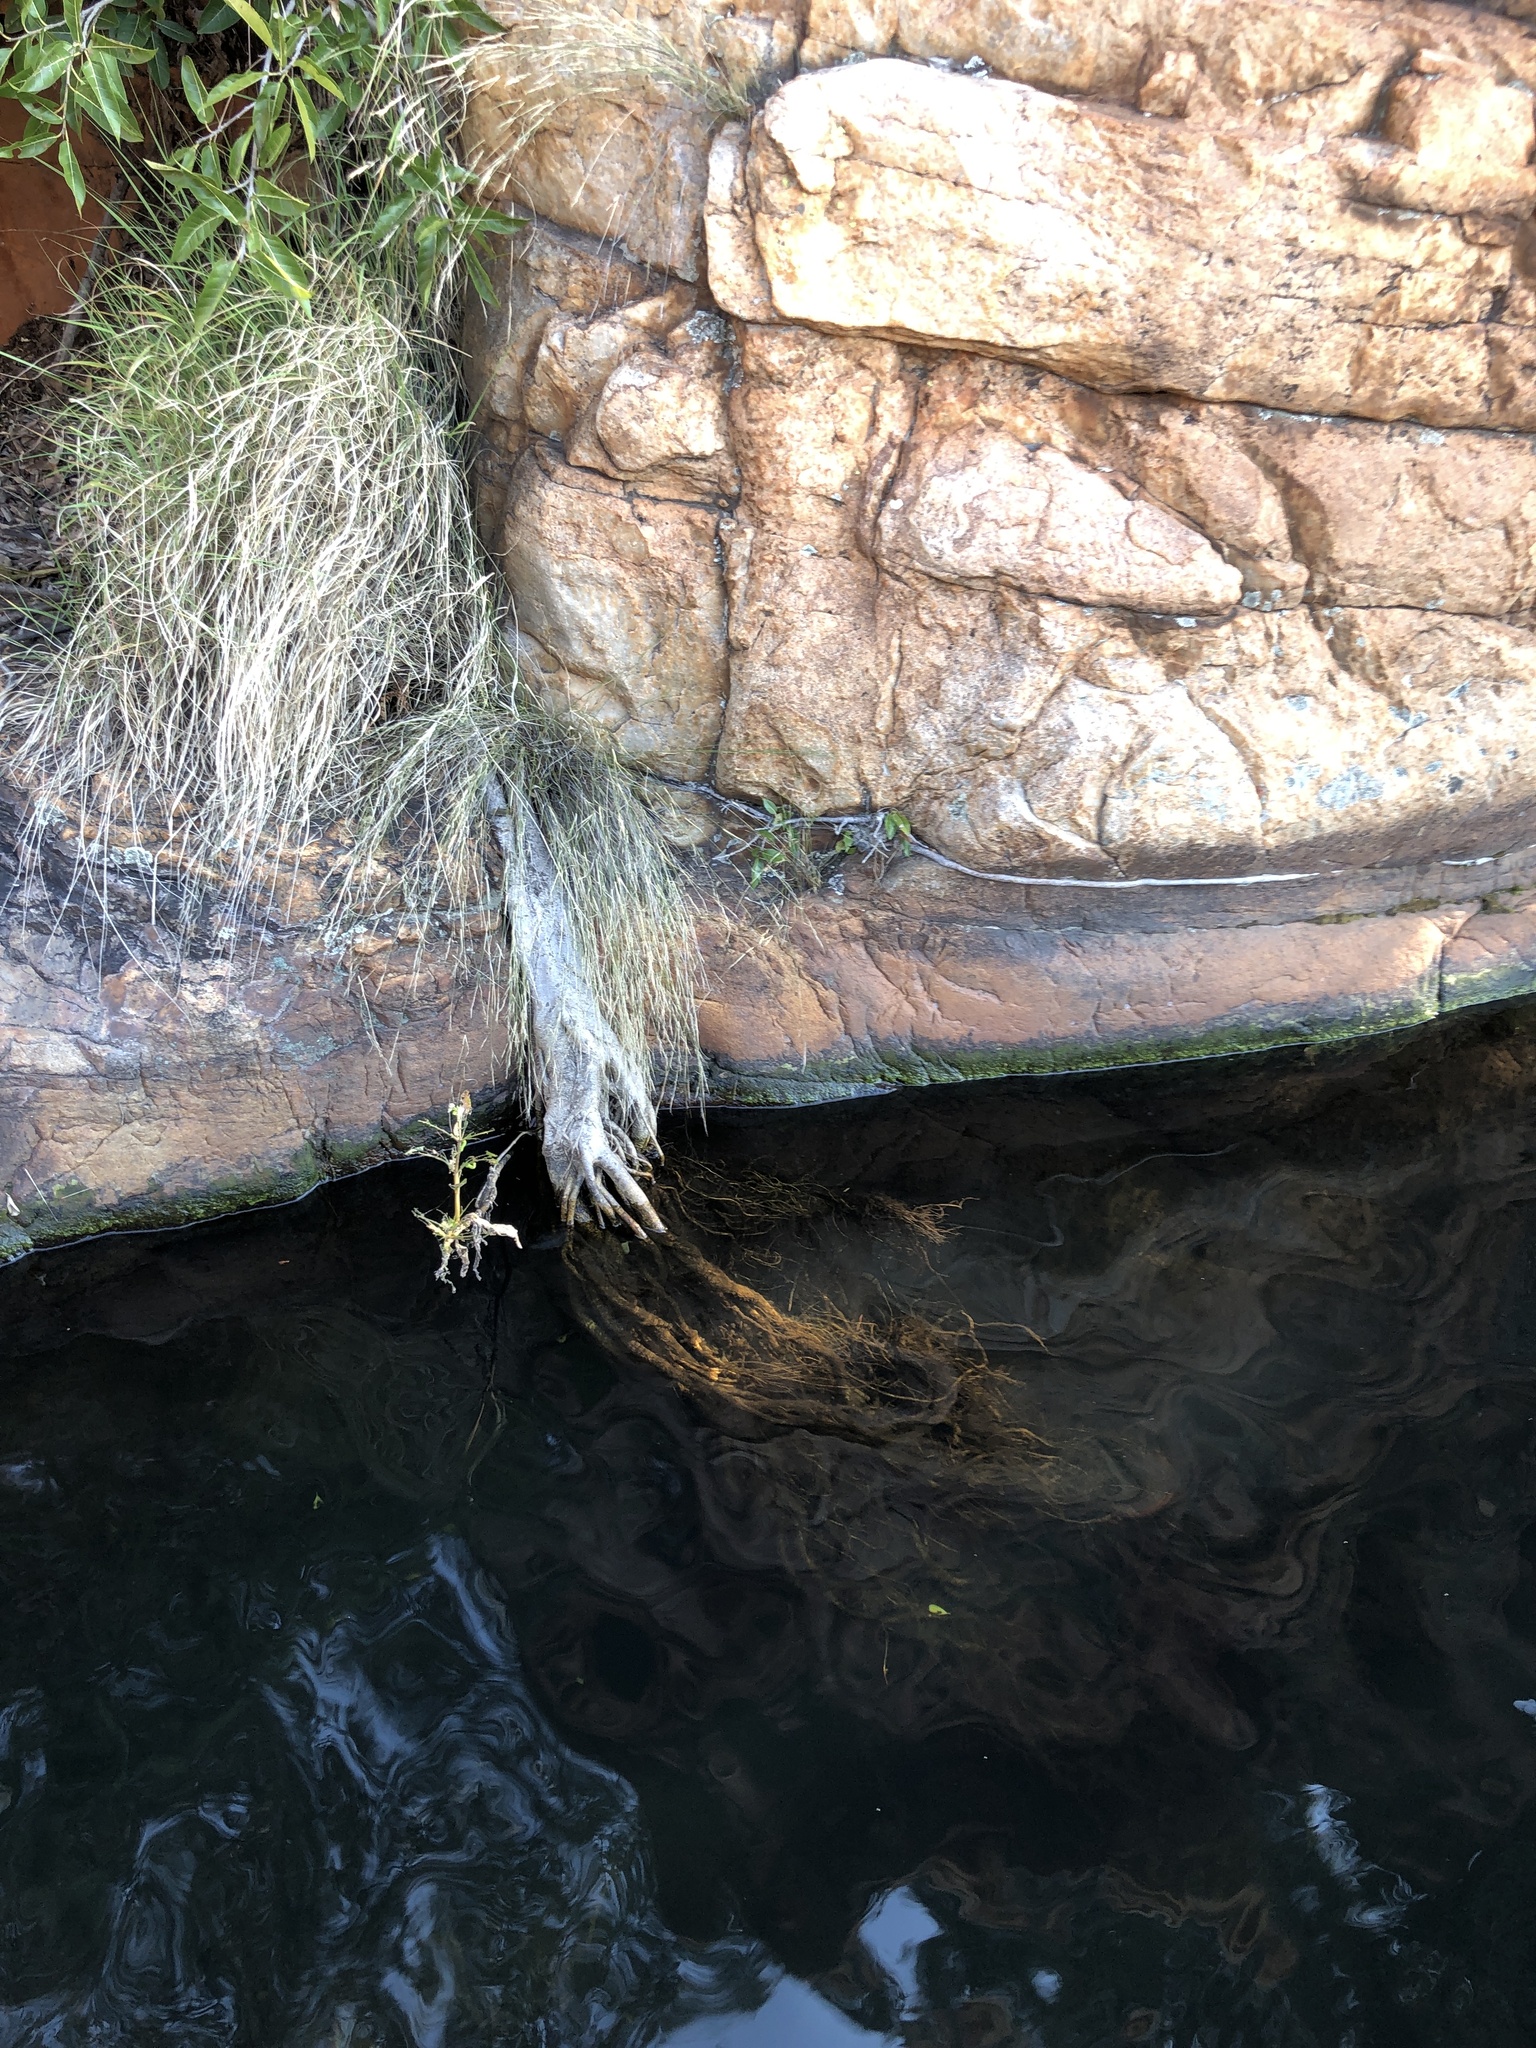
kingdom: Plantae
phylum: Tracheophyta
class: Magnoliopsida
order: Rosales
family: Moraceae
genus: Ficus
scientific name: Ficus ingens
